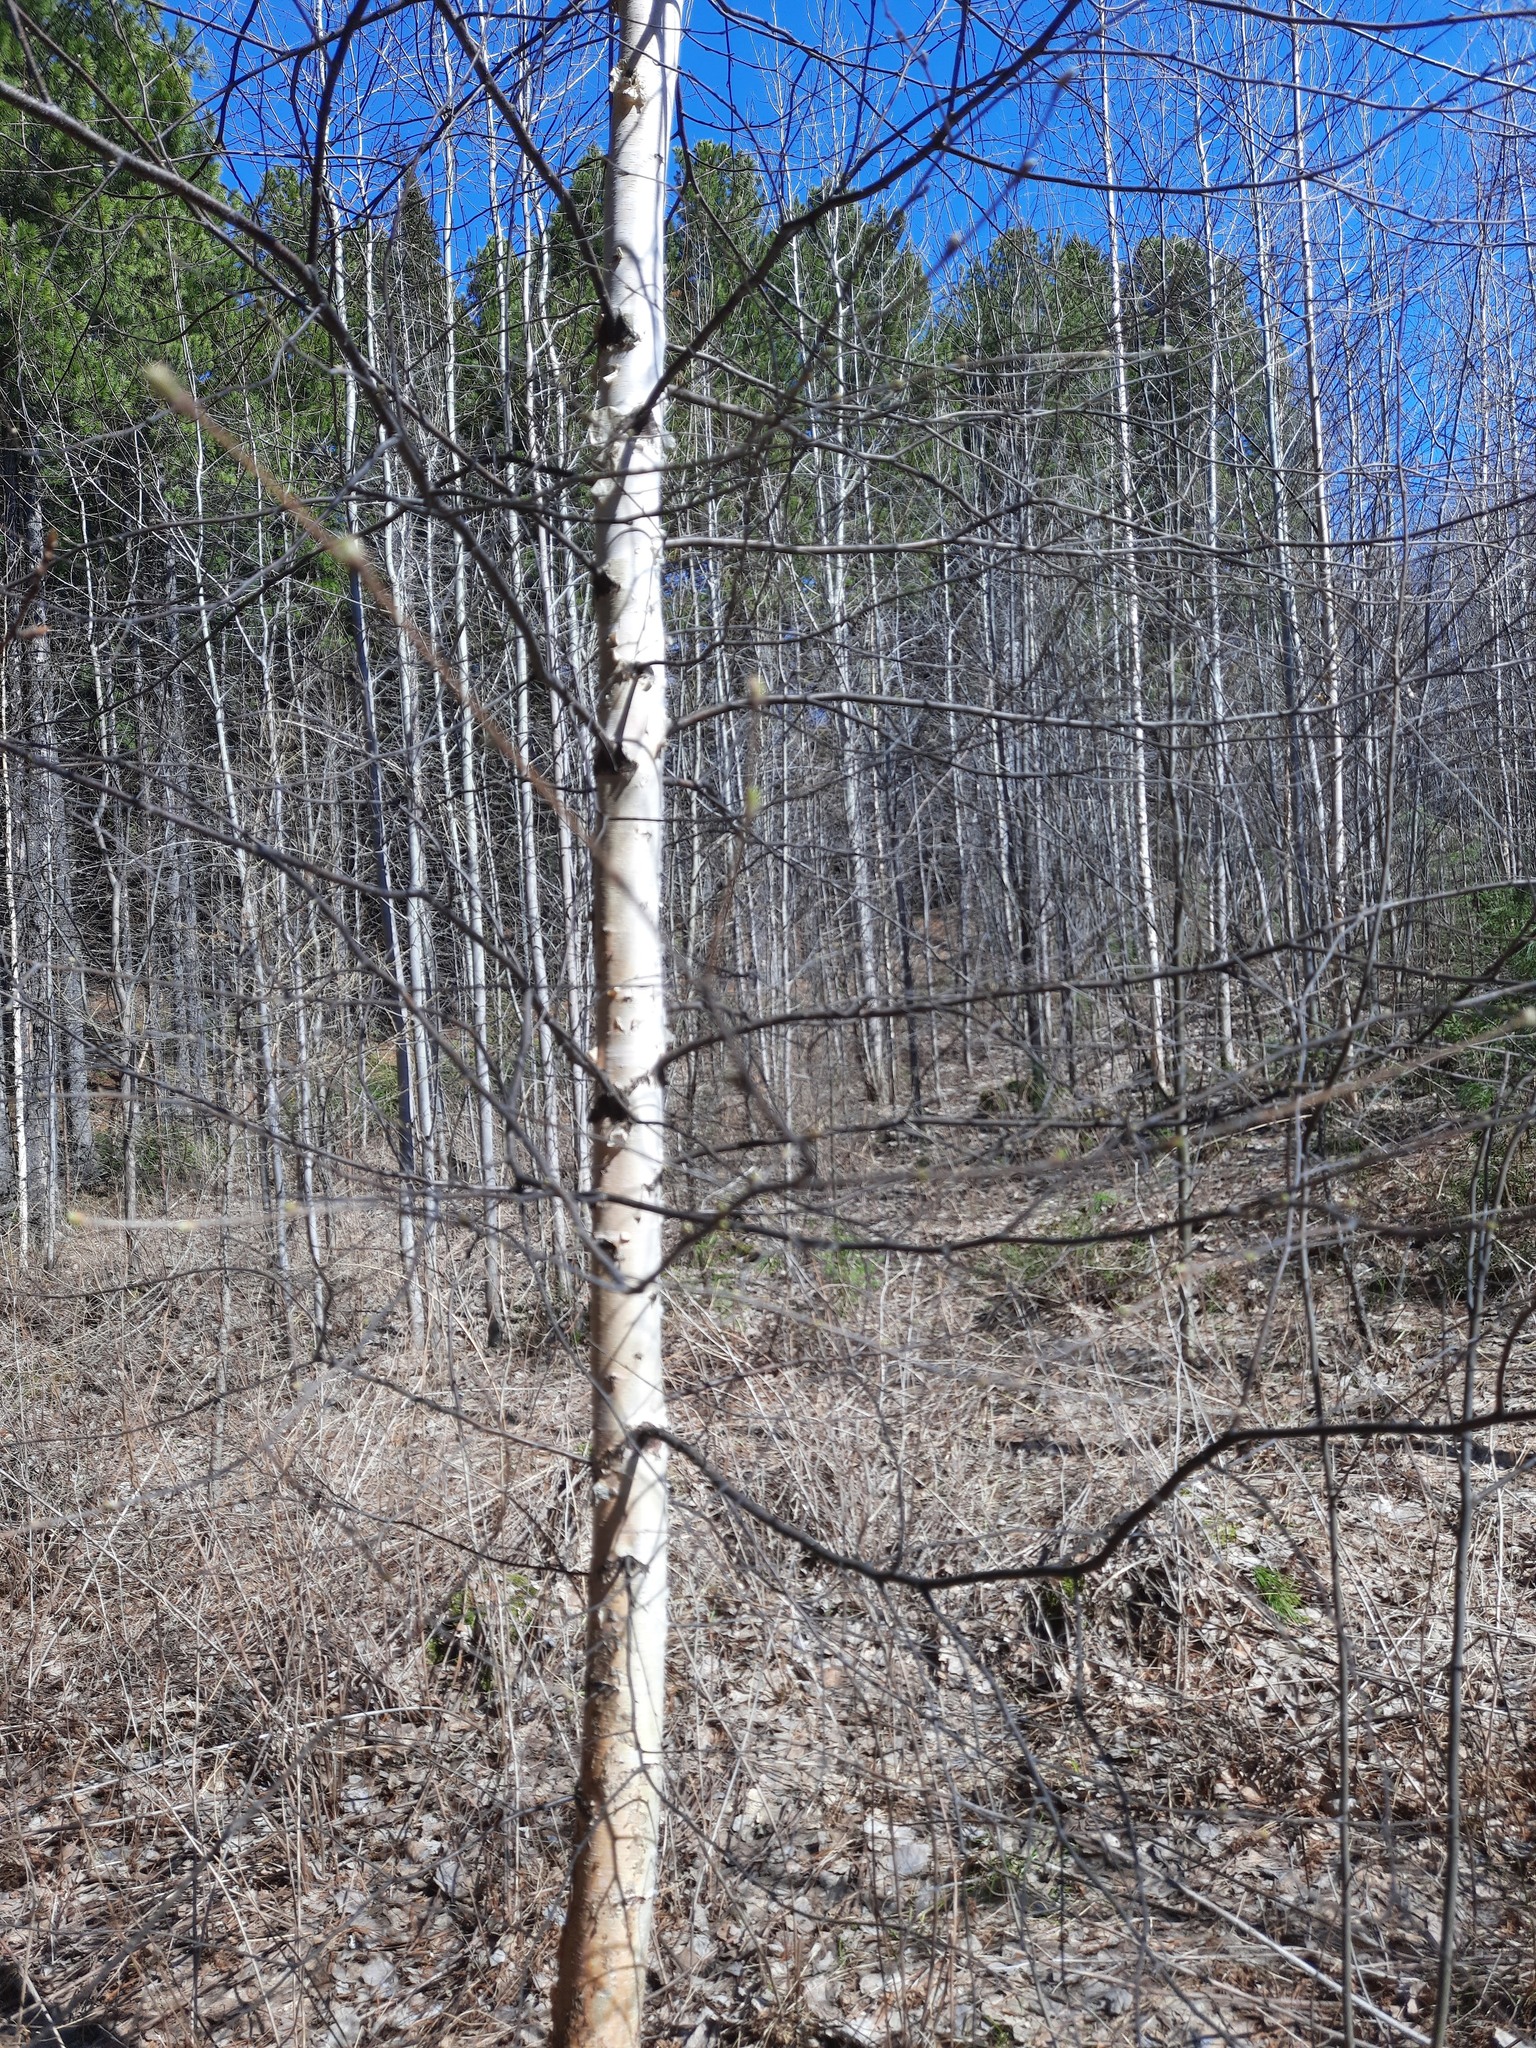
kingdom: Plantae
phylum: Tracheophyta
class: Magnoliopsida
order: Fagales
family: Betulaceae
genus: Betula
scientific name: Betula pubescens
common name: Downy birch
